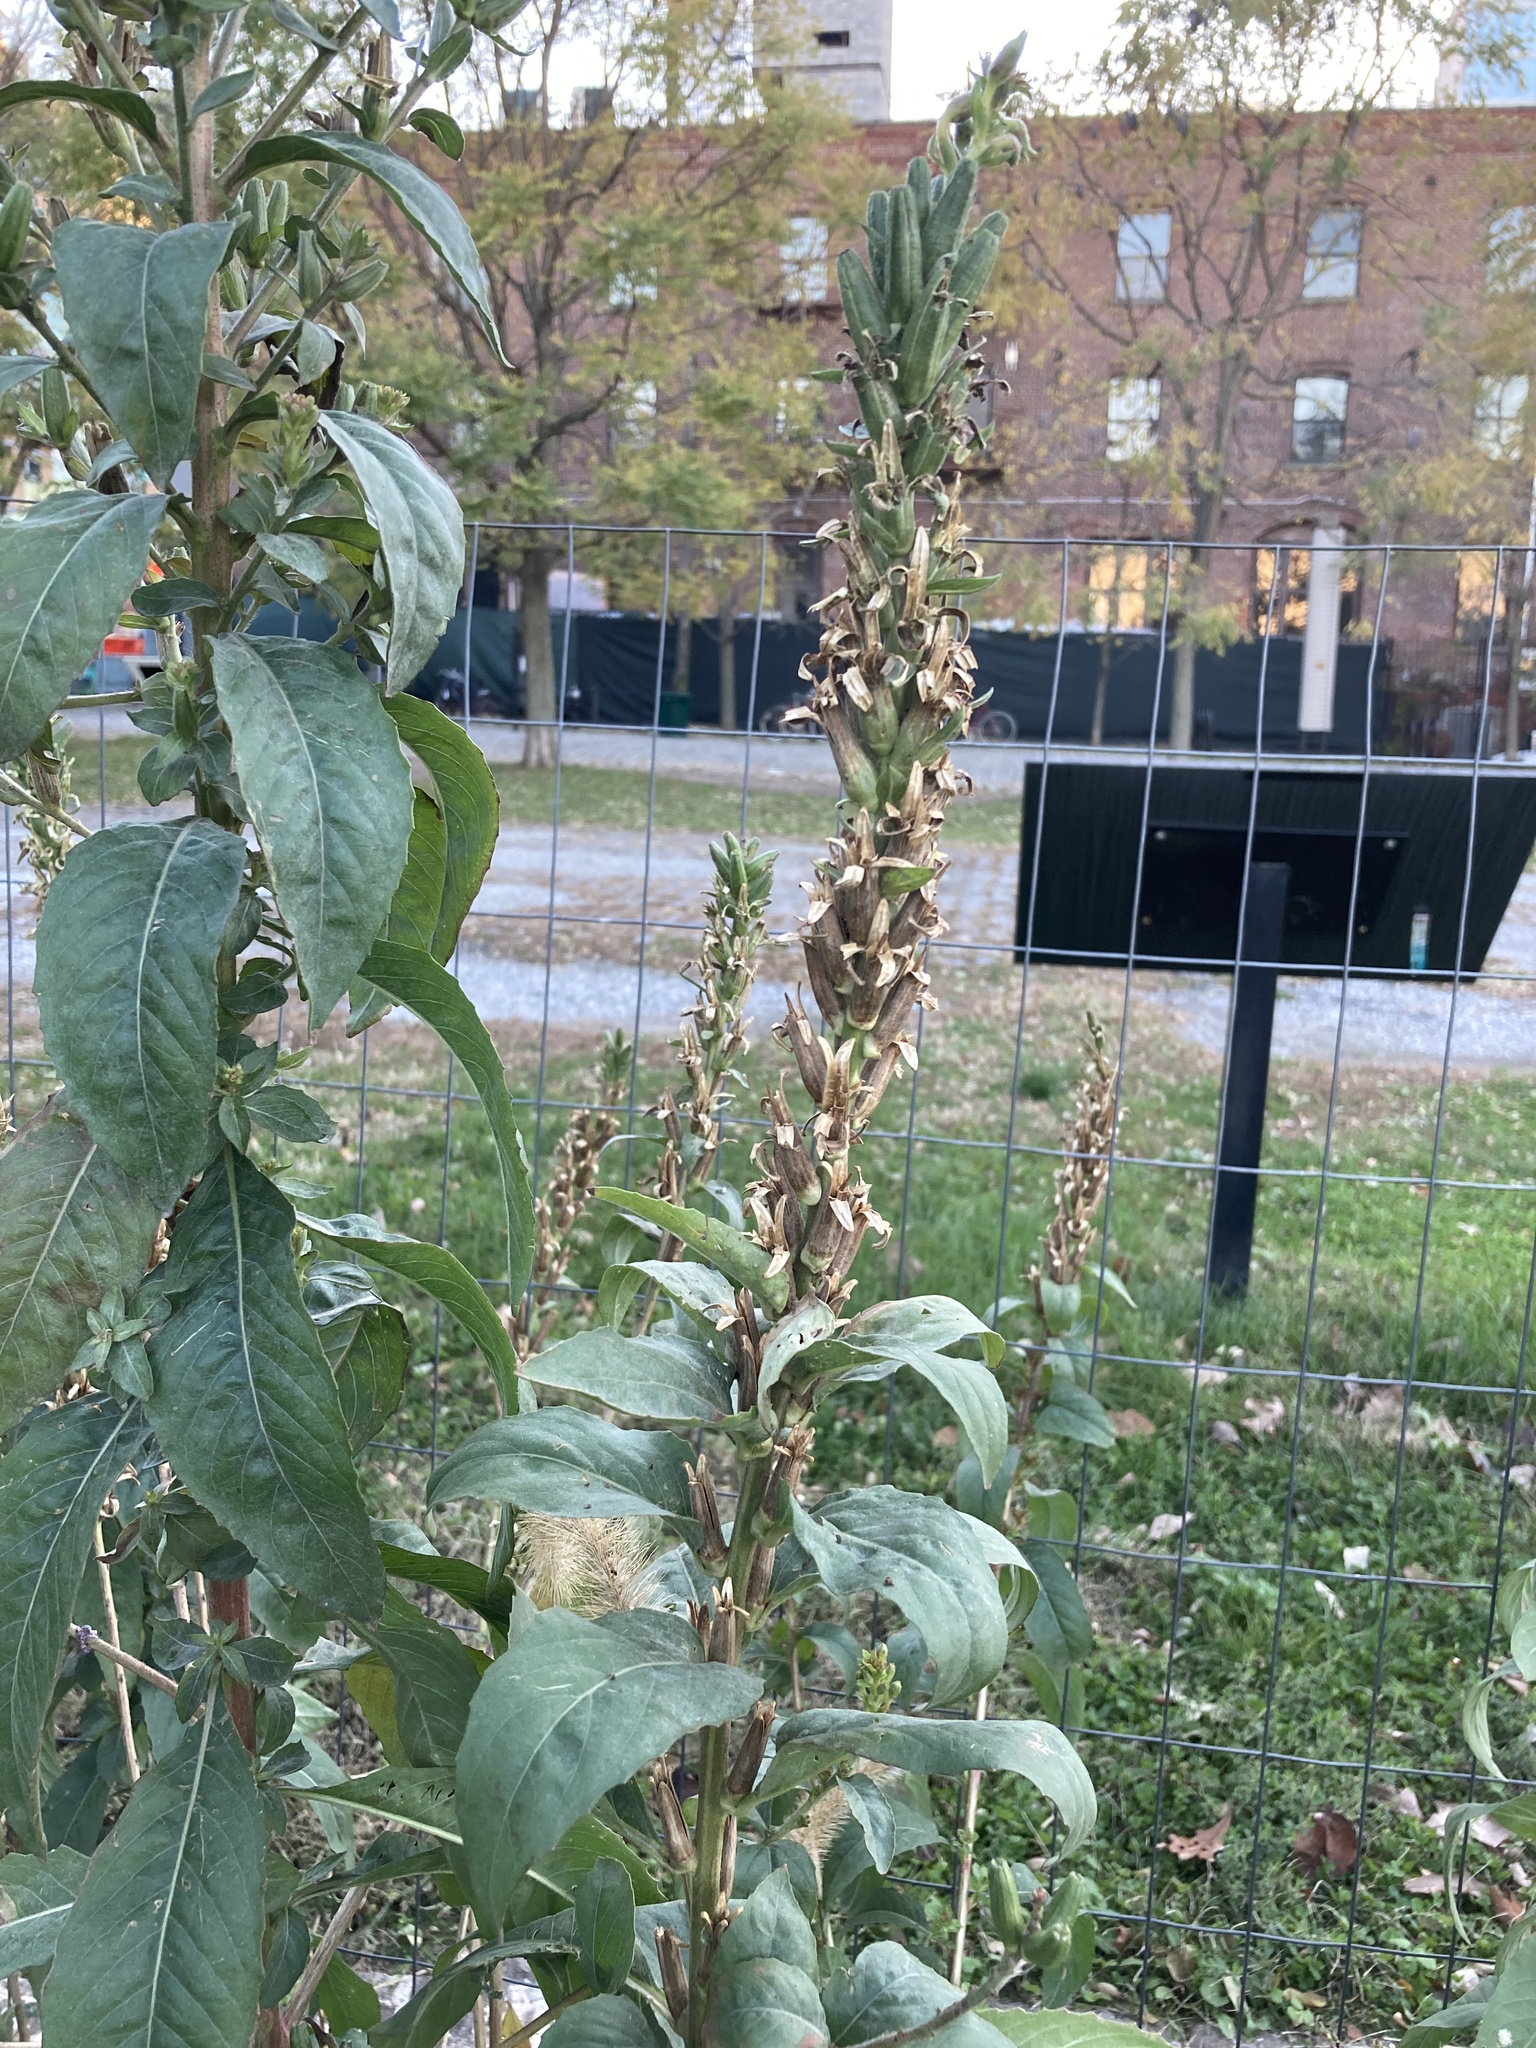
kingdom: Plantae
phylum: Tracheophyta
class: Magnoliopsida
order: Myrtales
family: Onagraceae
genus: Oenothera
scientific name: Oenothera biennis
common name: Common evening-primrose
